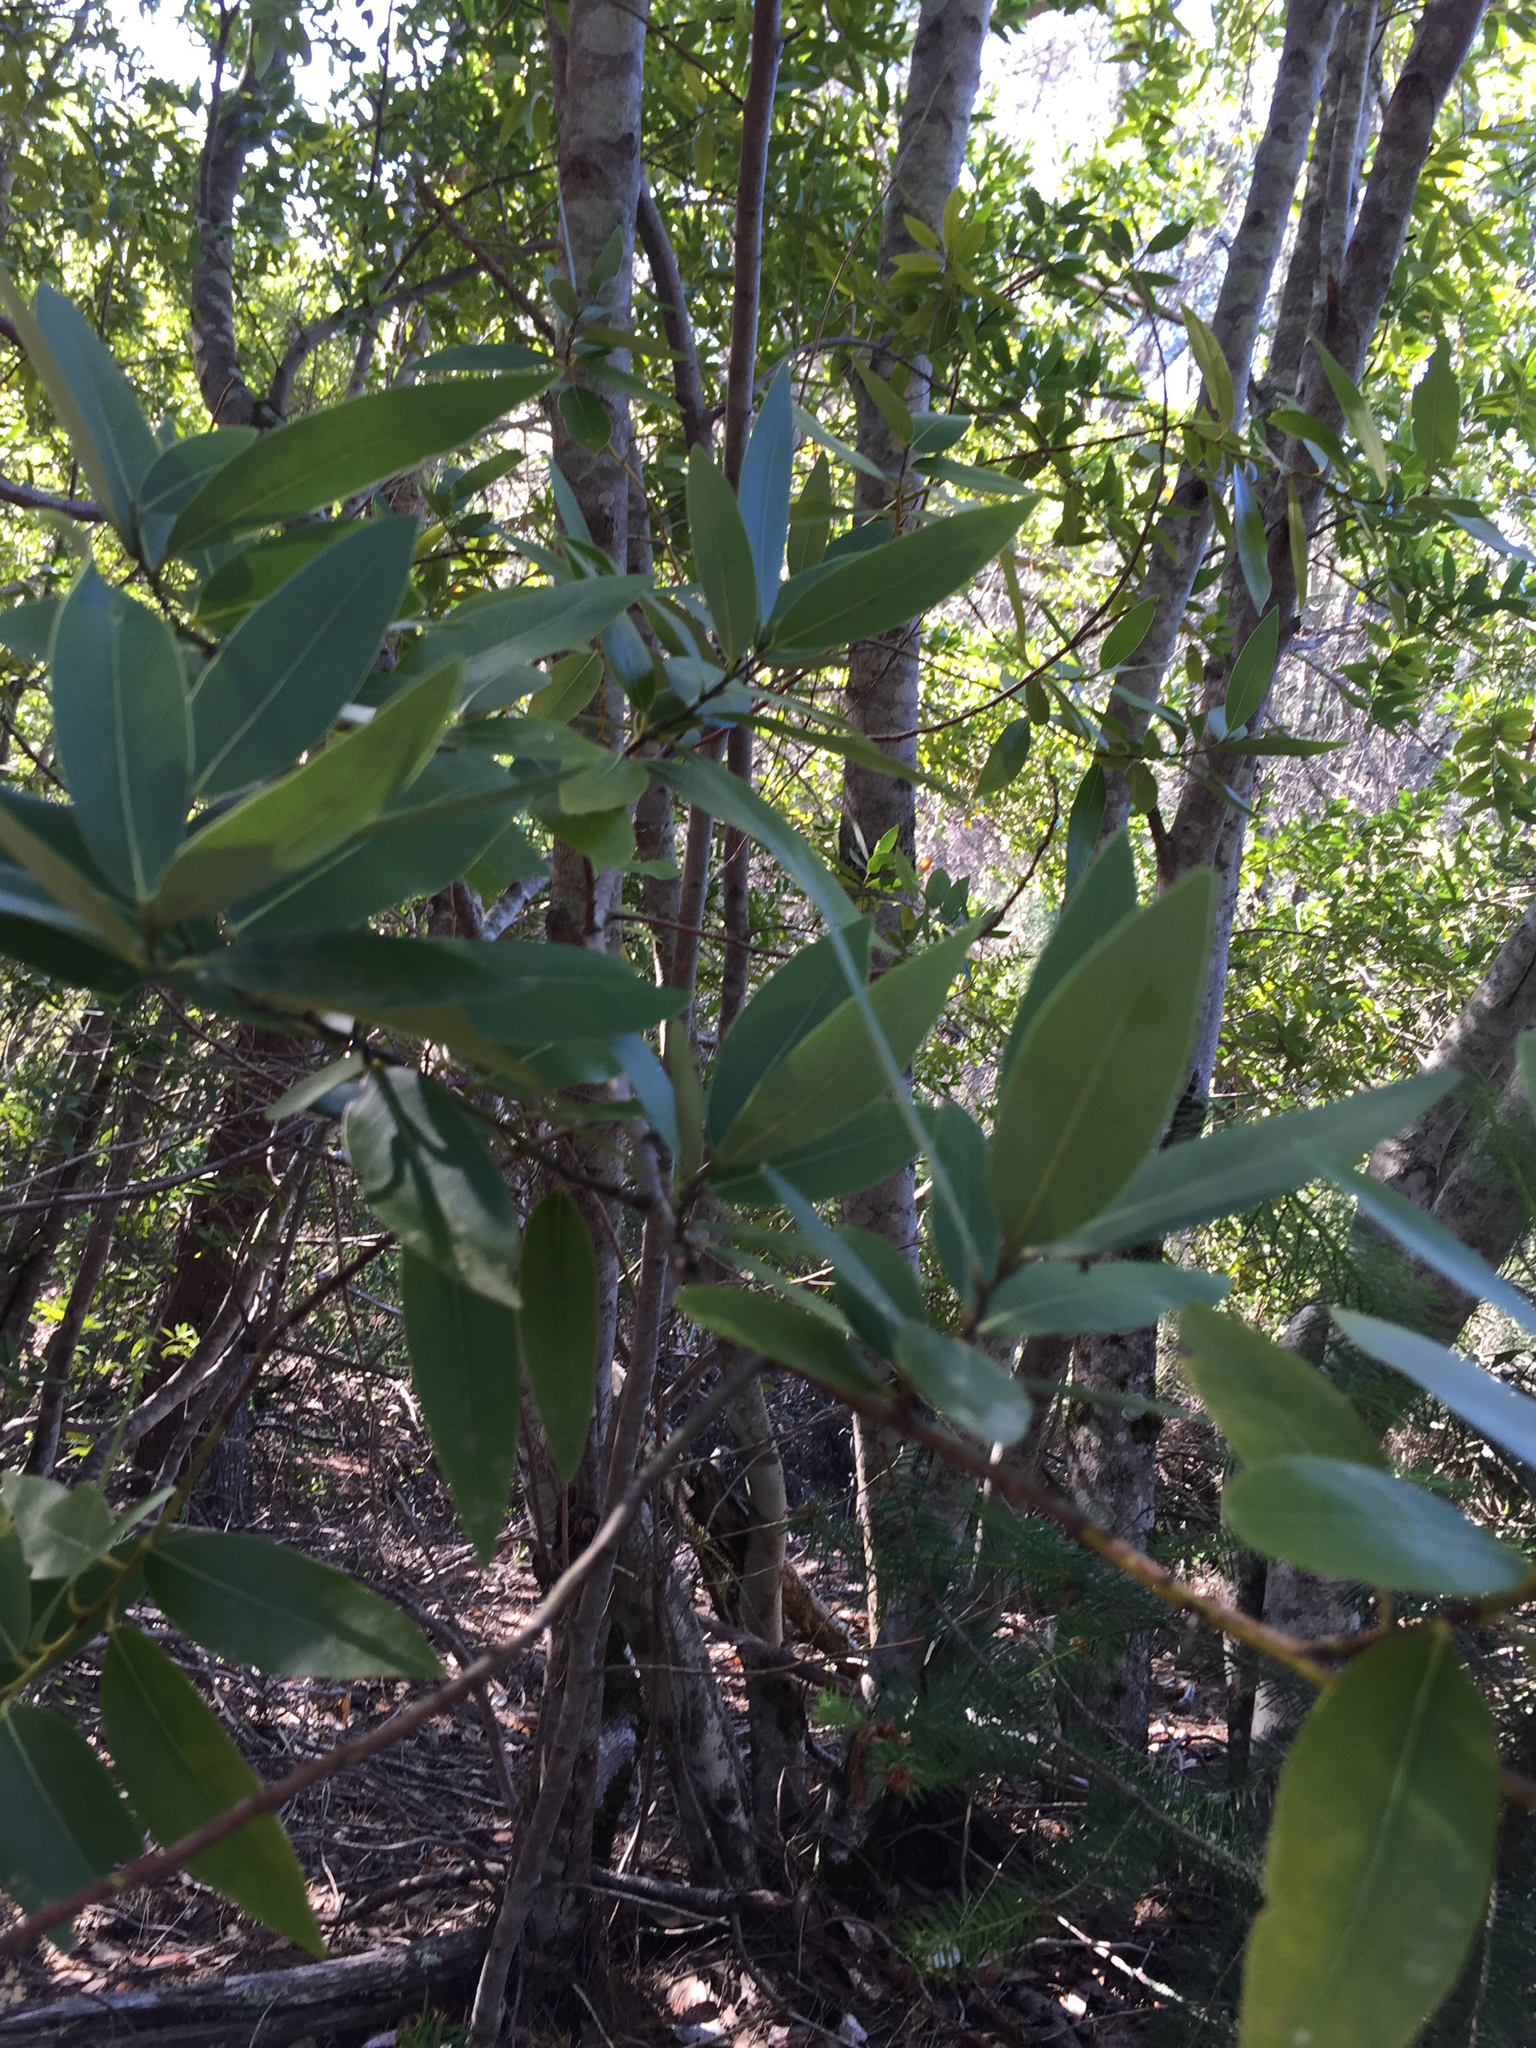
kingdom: Plantae
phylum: Tracheophyta
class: Magnoliopsida
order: Laurales
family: Lauraceae
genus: Umbellularia
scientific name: Umbellularia californica
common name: California bay
